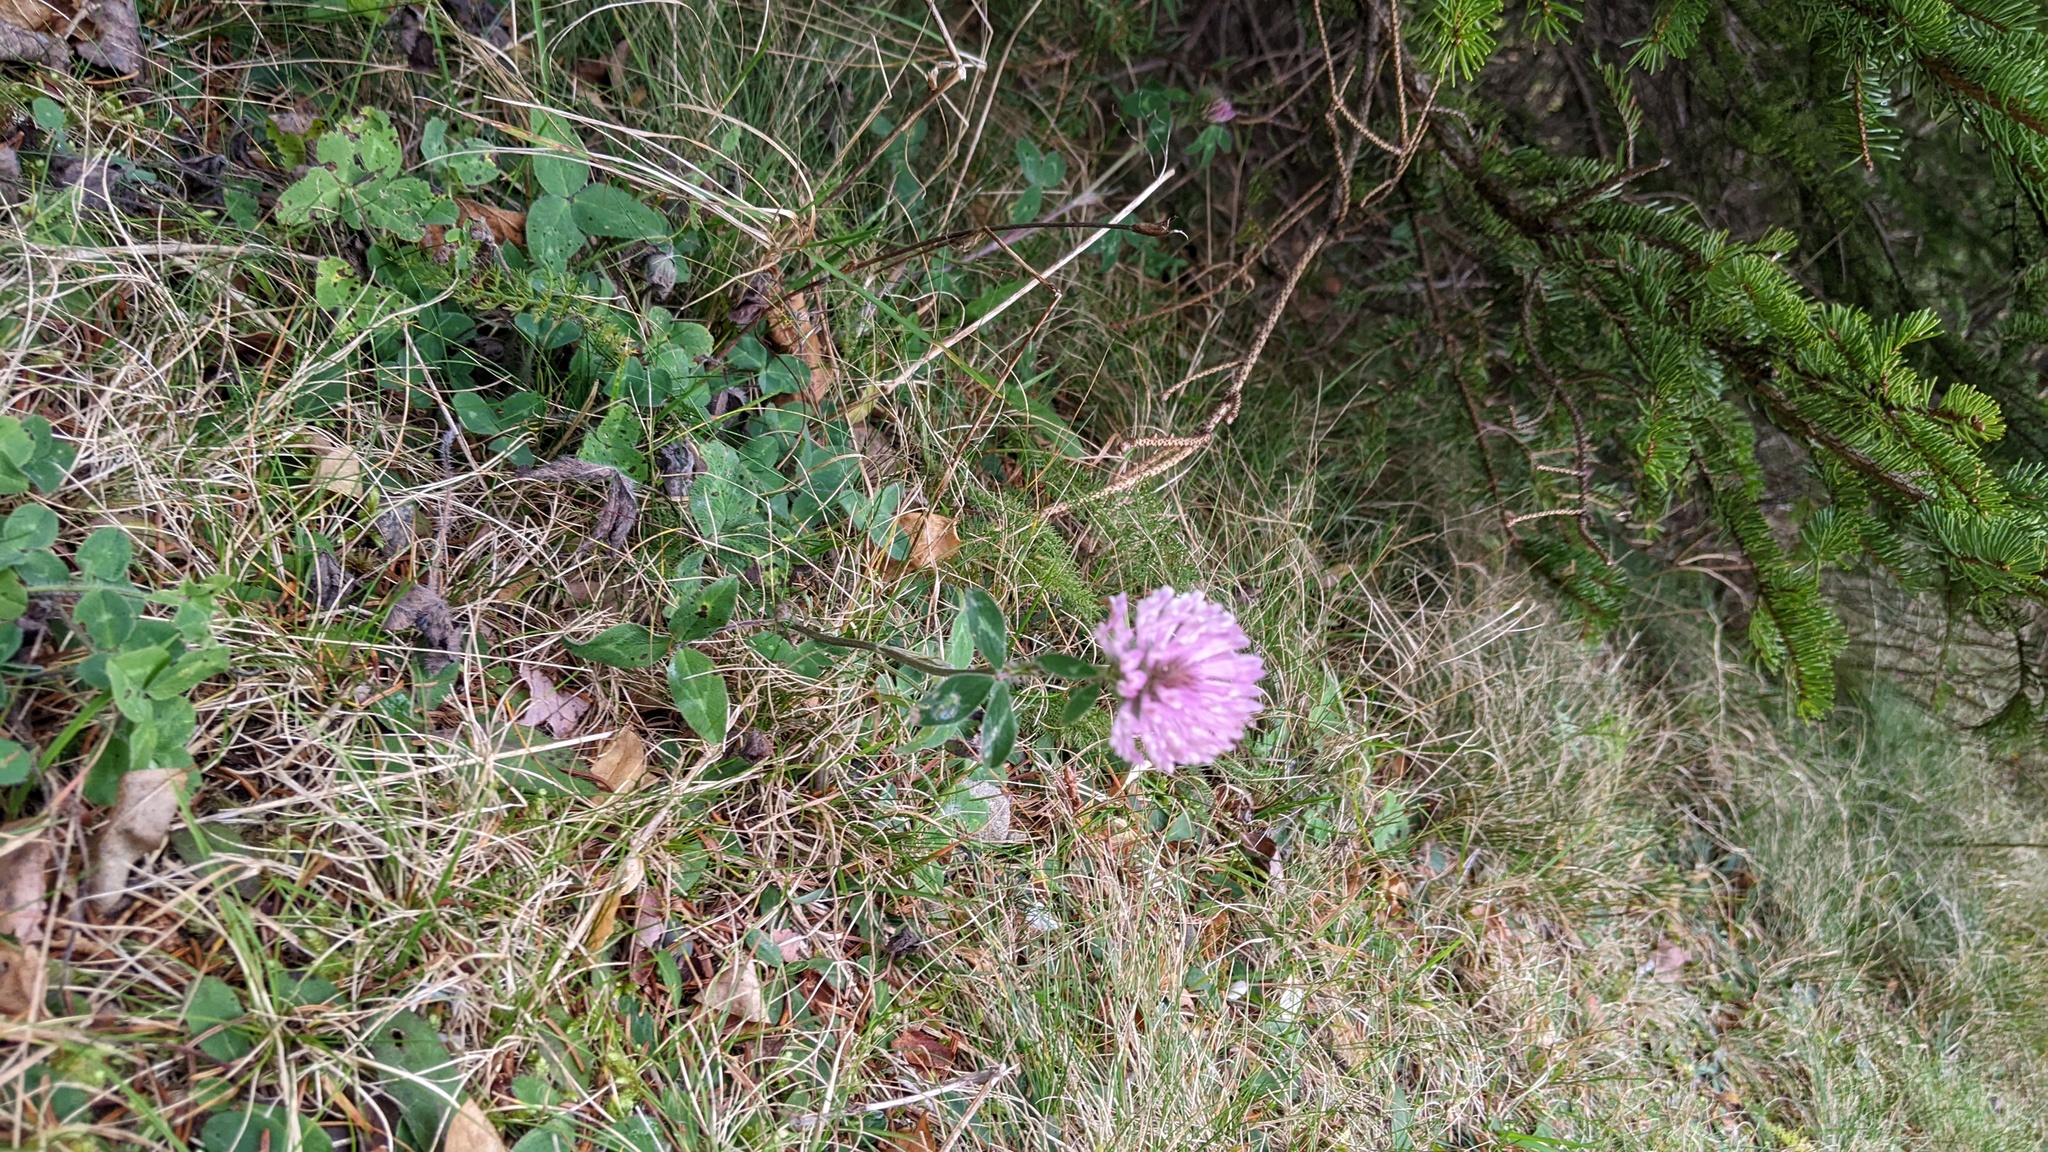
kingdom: Plantae
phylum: Tracheophyta
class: Magnoliopsida
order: Fabales
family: Fabaceae
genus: Trifolium
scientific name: Trifolium pratense
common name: Red clover
